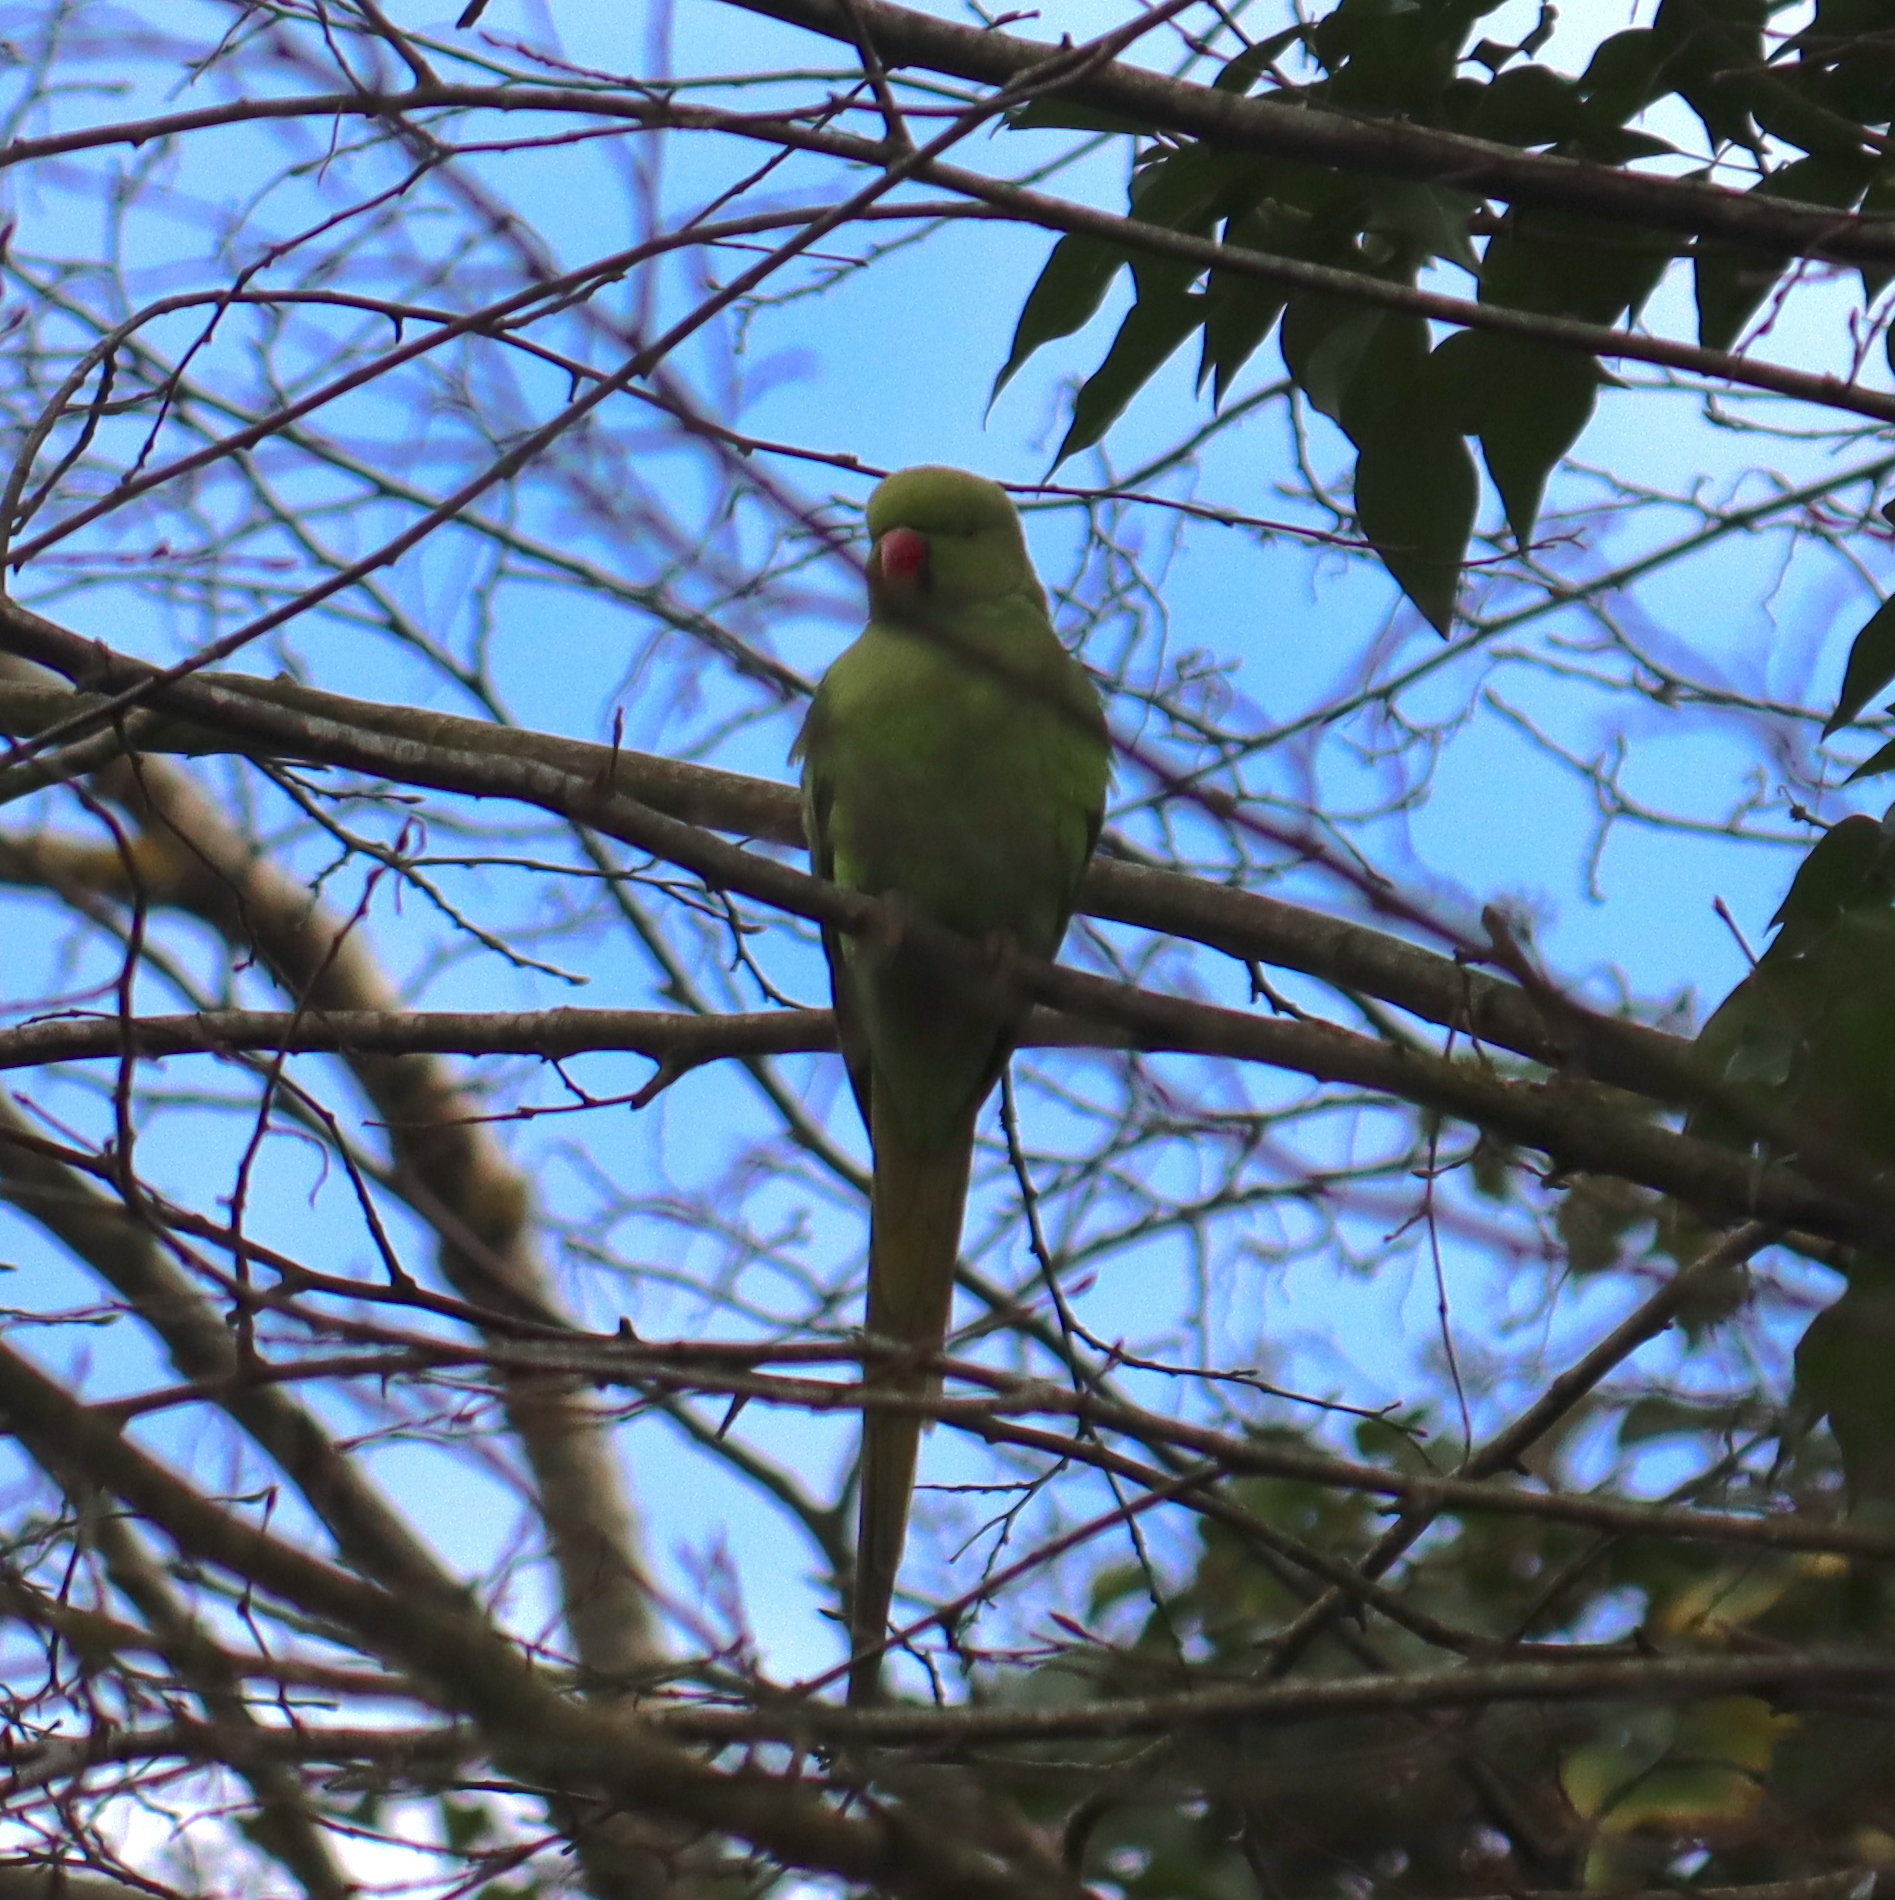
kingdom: Animalia
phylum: Chordata
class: Aves
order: Psittaciformes
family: Psittacidae
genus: Psittacula
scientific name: Psittacula krameri
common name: Rose-ringed parakeet
